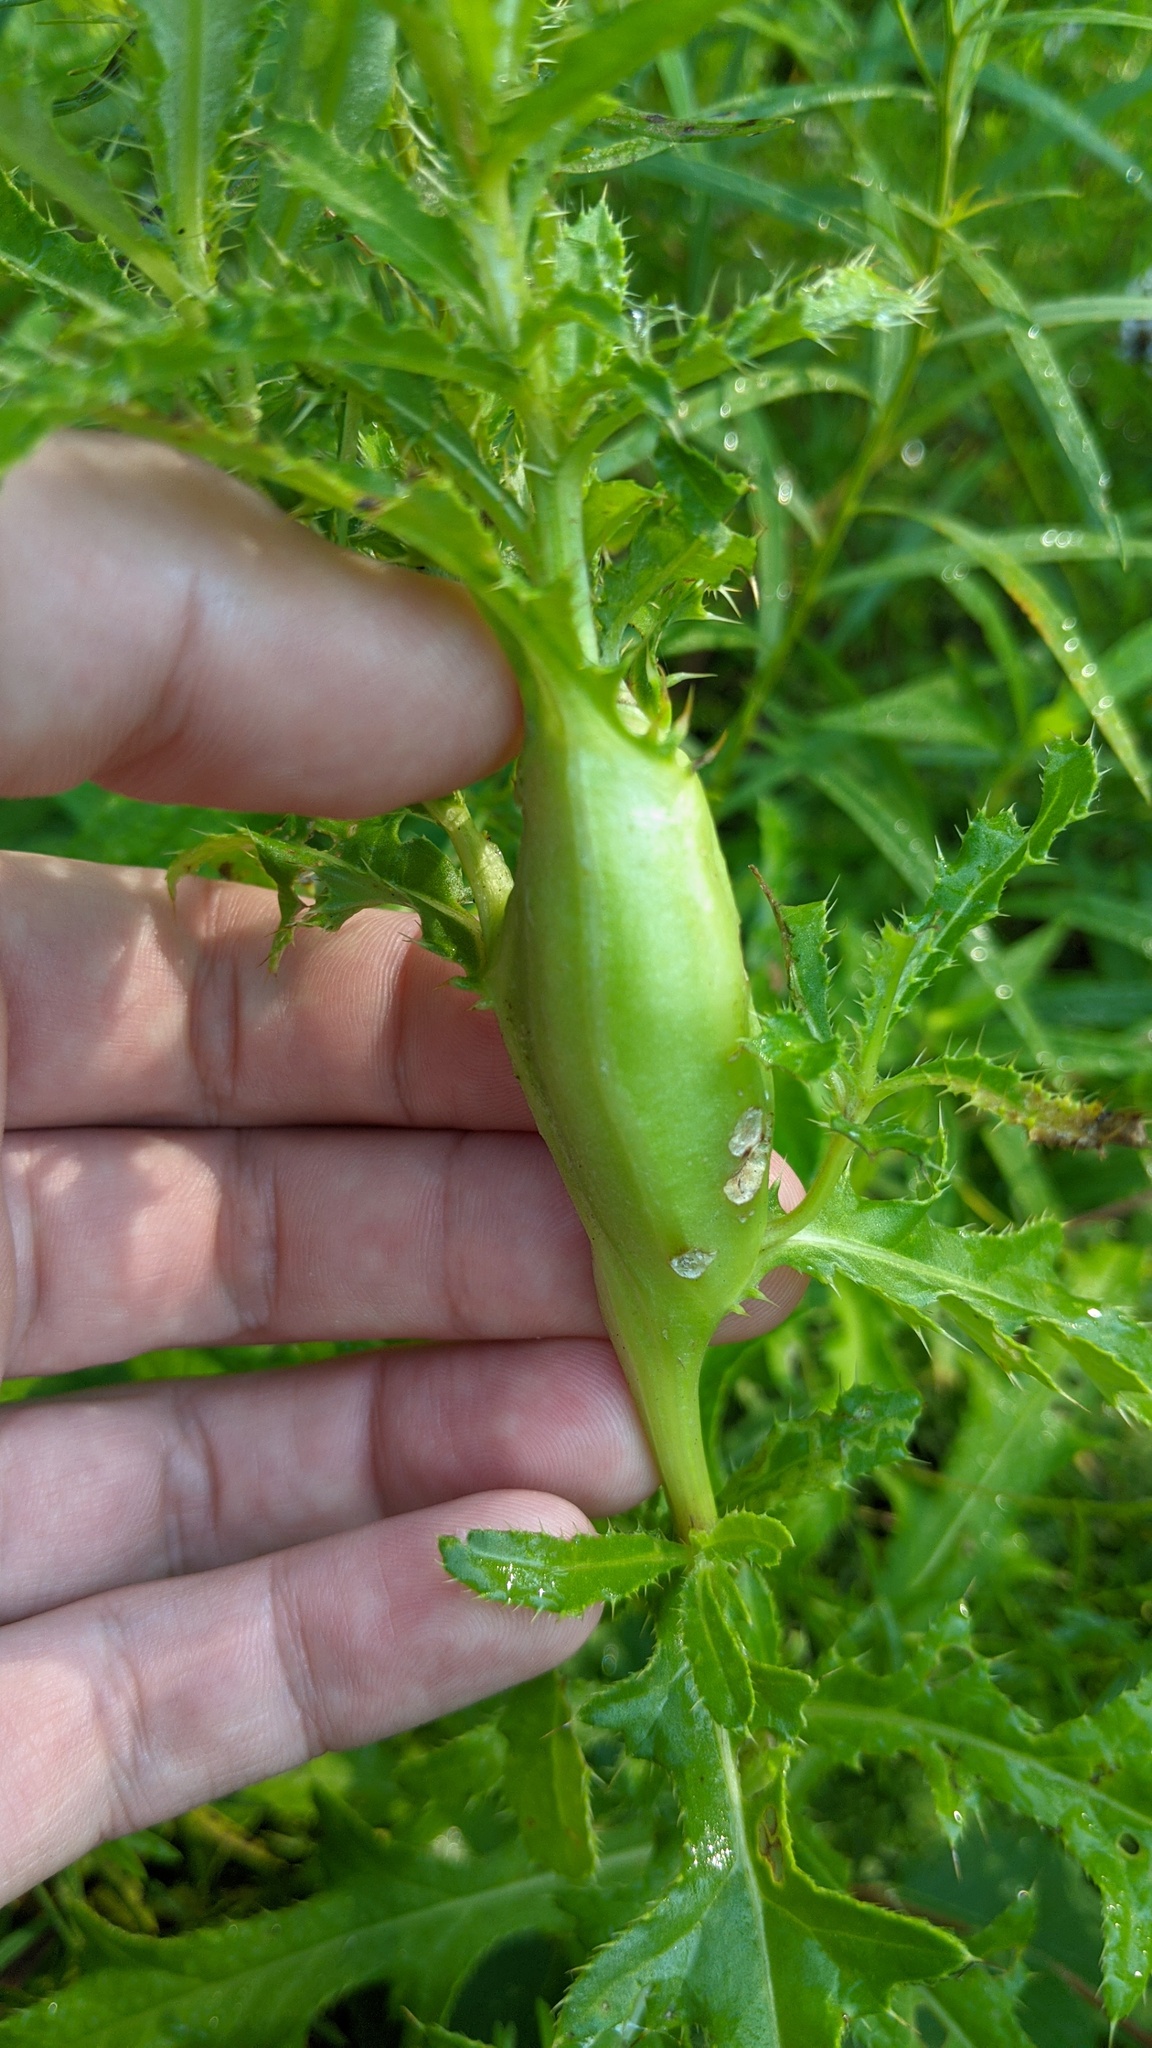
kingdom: Animalia
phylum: Arthropoda
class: Insecta
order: Diptera
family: Tephritidae
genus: Urophora
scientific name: Urophora cardui
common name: Fruit fly
